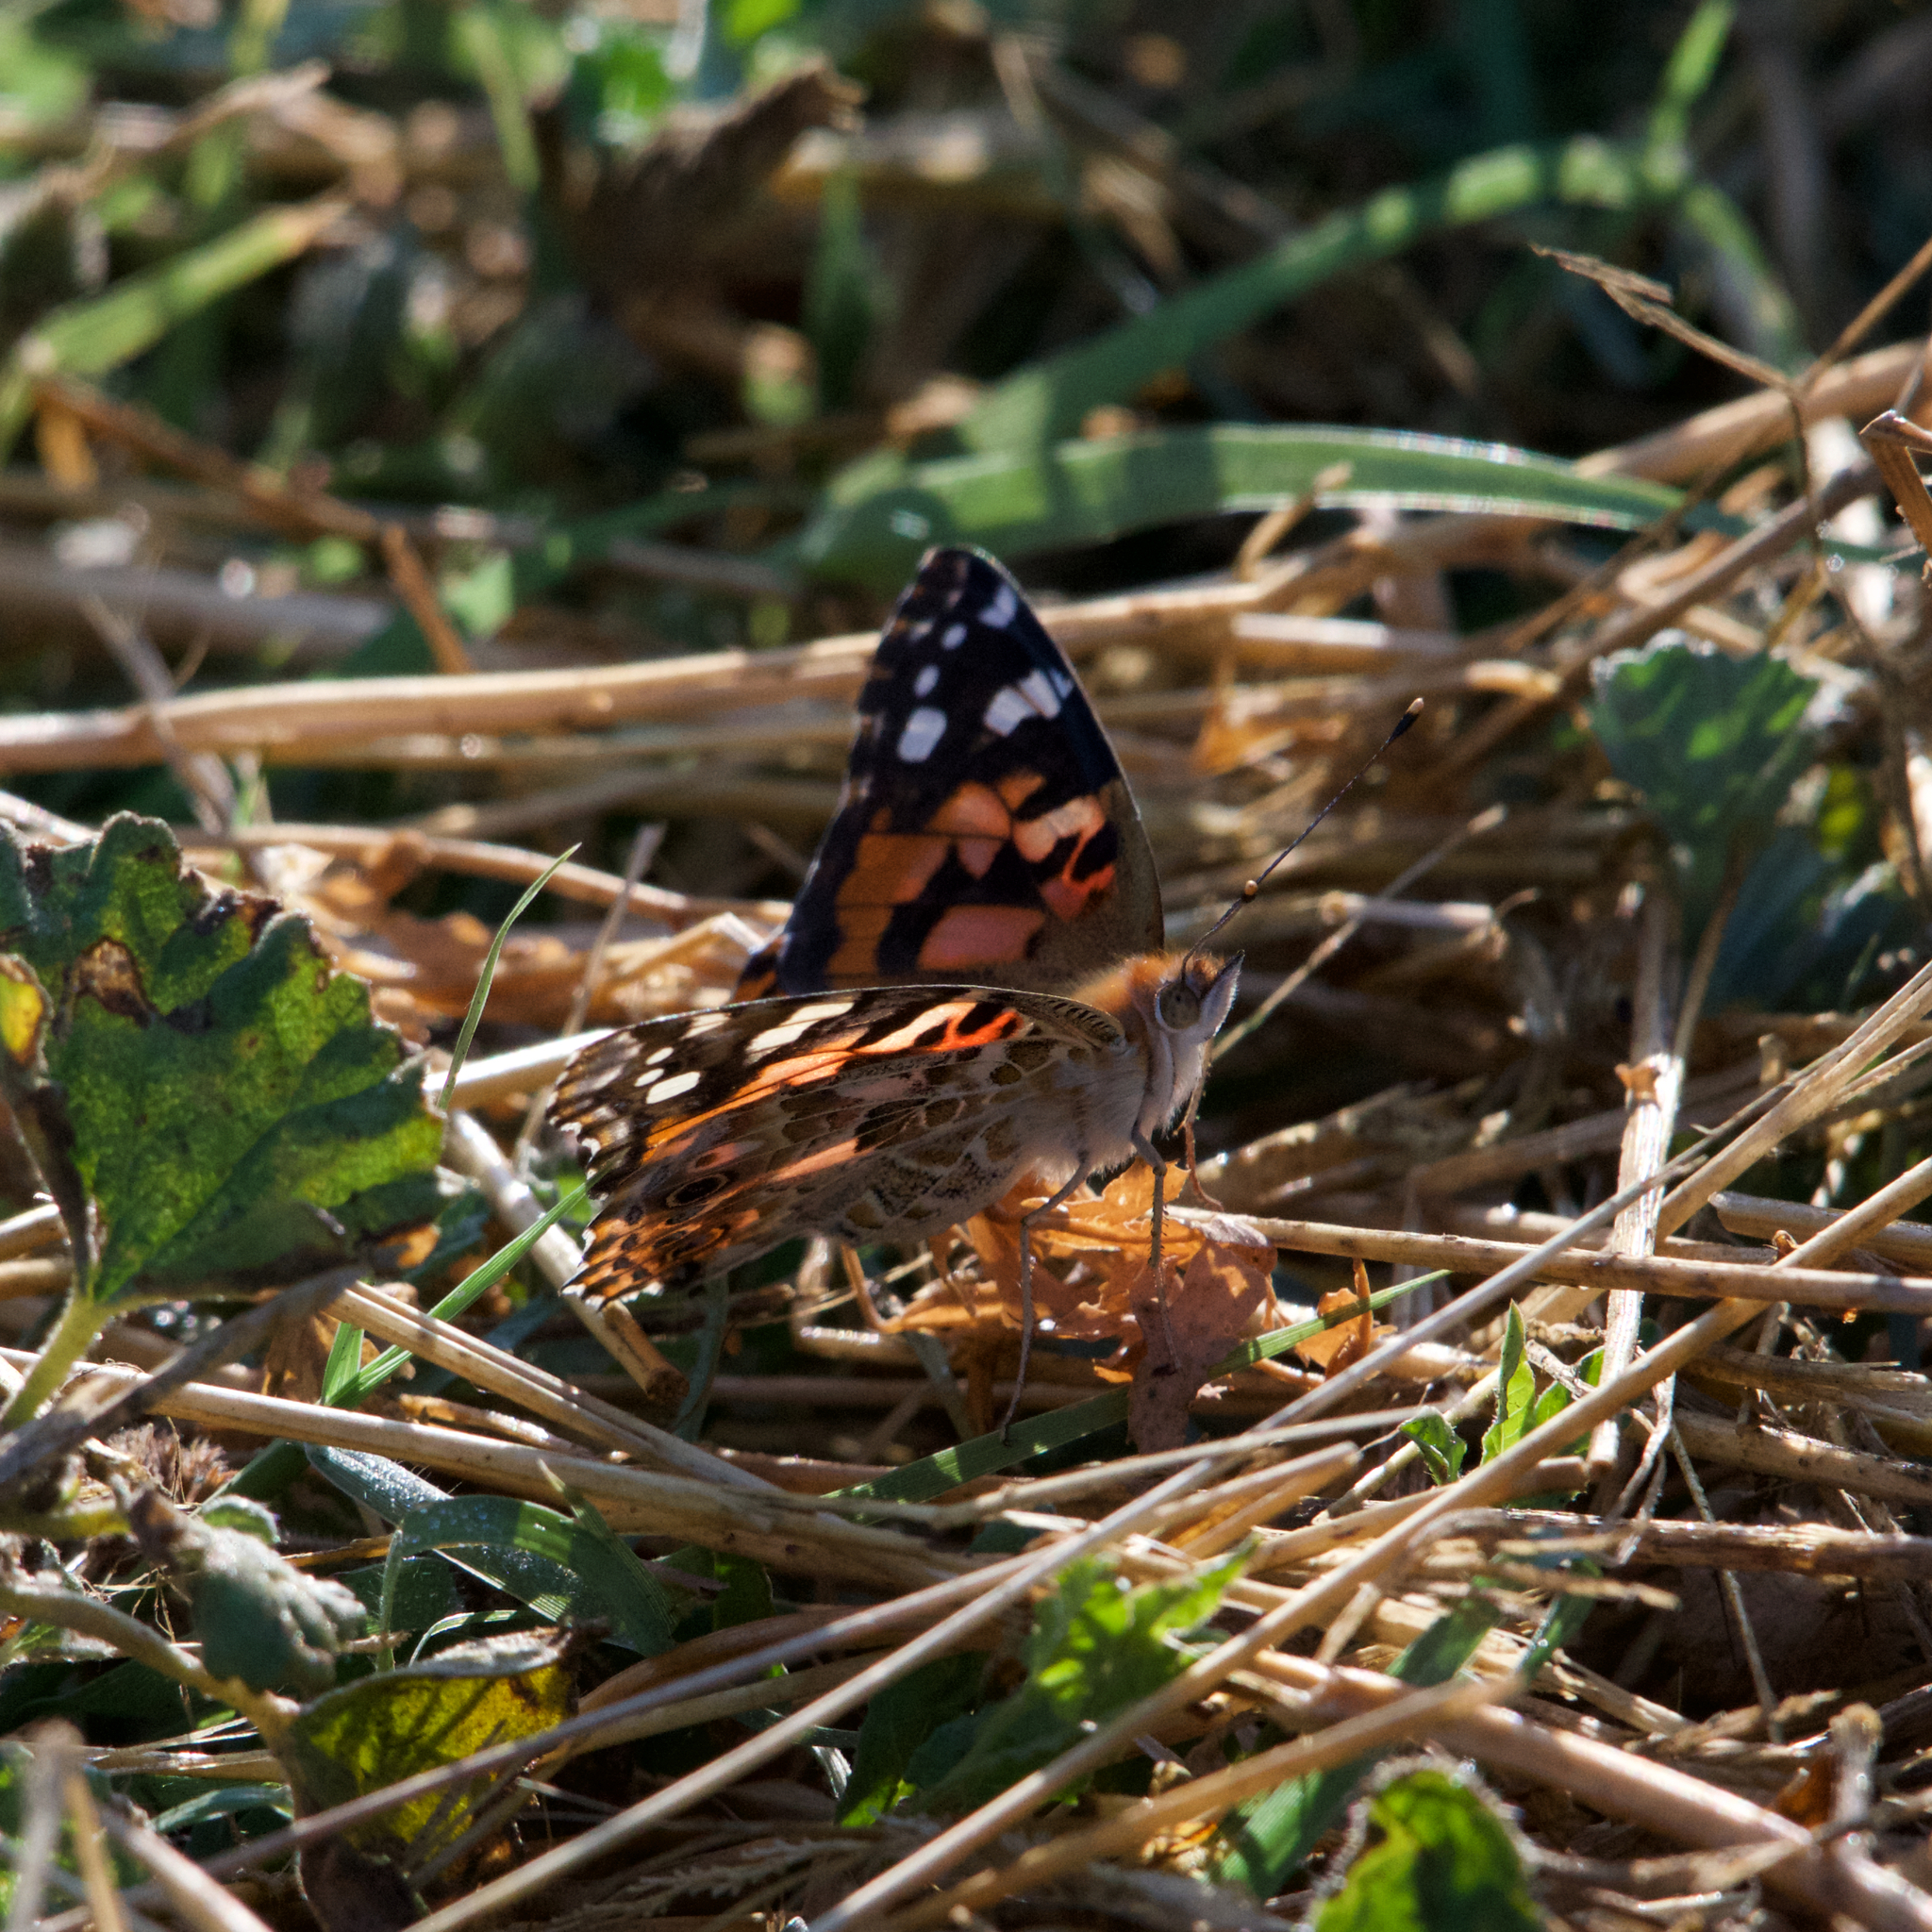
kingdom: Animalia
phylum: Arthropoda
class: Insecta
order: Lepidoptera
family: Nymphalidae
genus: Vanessa
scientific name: Vanessa cardui
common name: Painted lady
